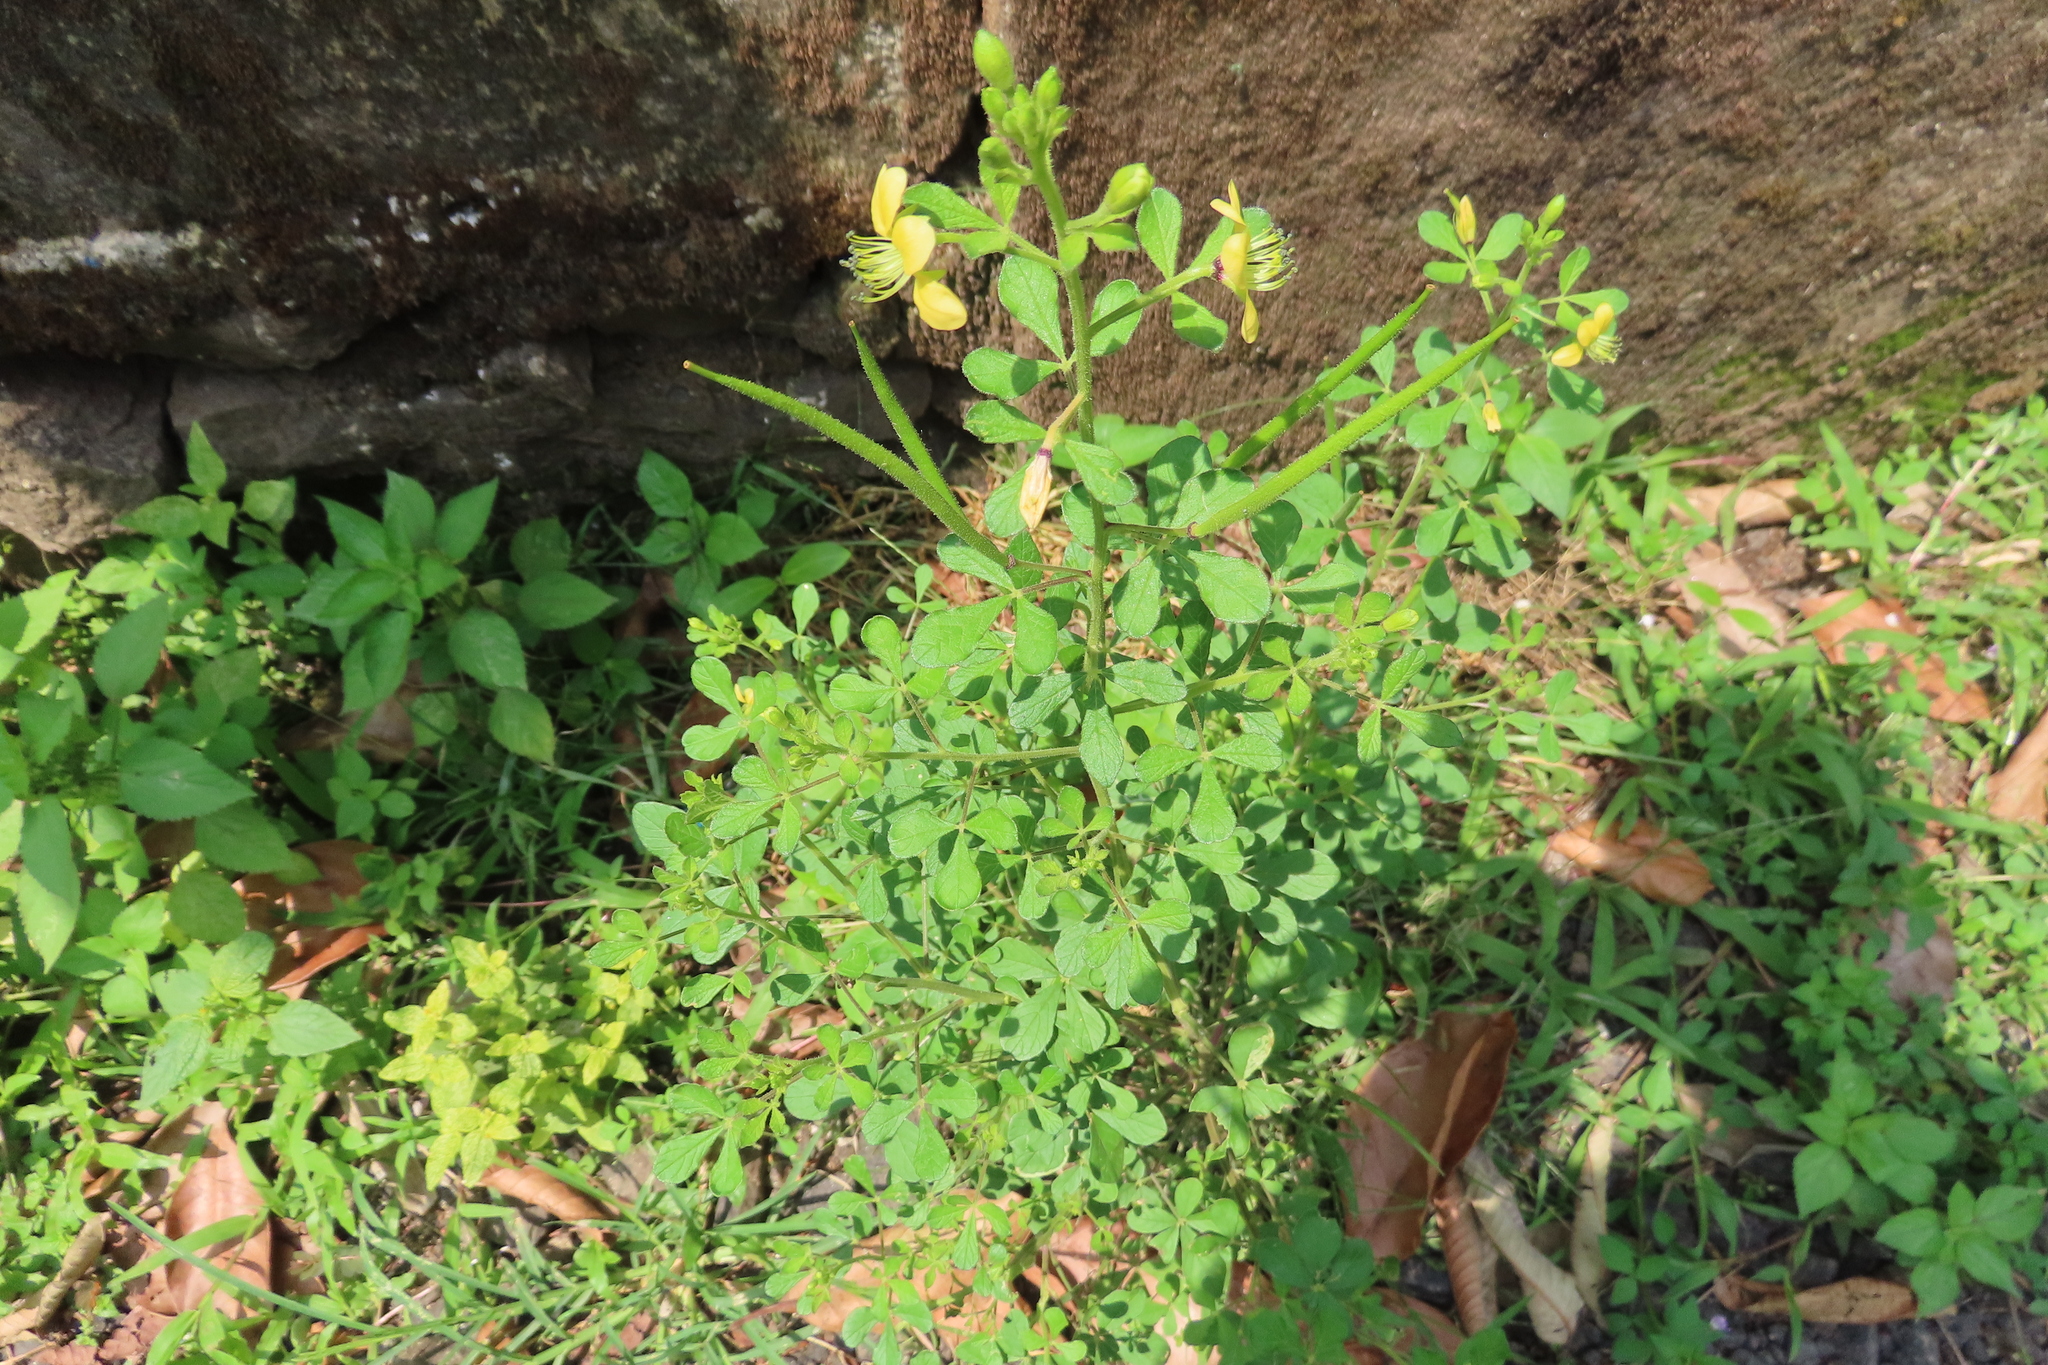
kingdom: Plantae
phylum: Tracheophyta
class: Magnoliopsida
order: Brassicales
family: Cleomaceae
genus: Arivela
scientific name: Arivela viscosa
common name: Asian spiderflower
